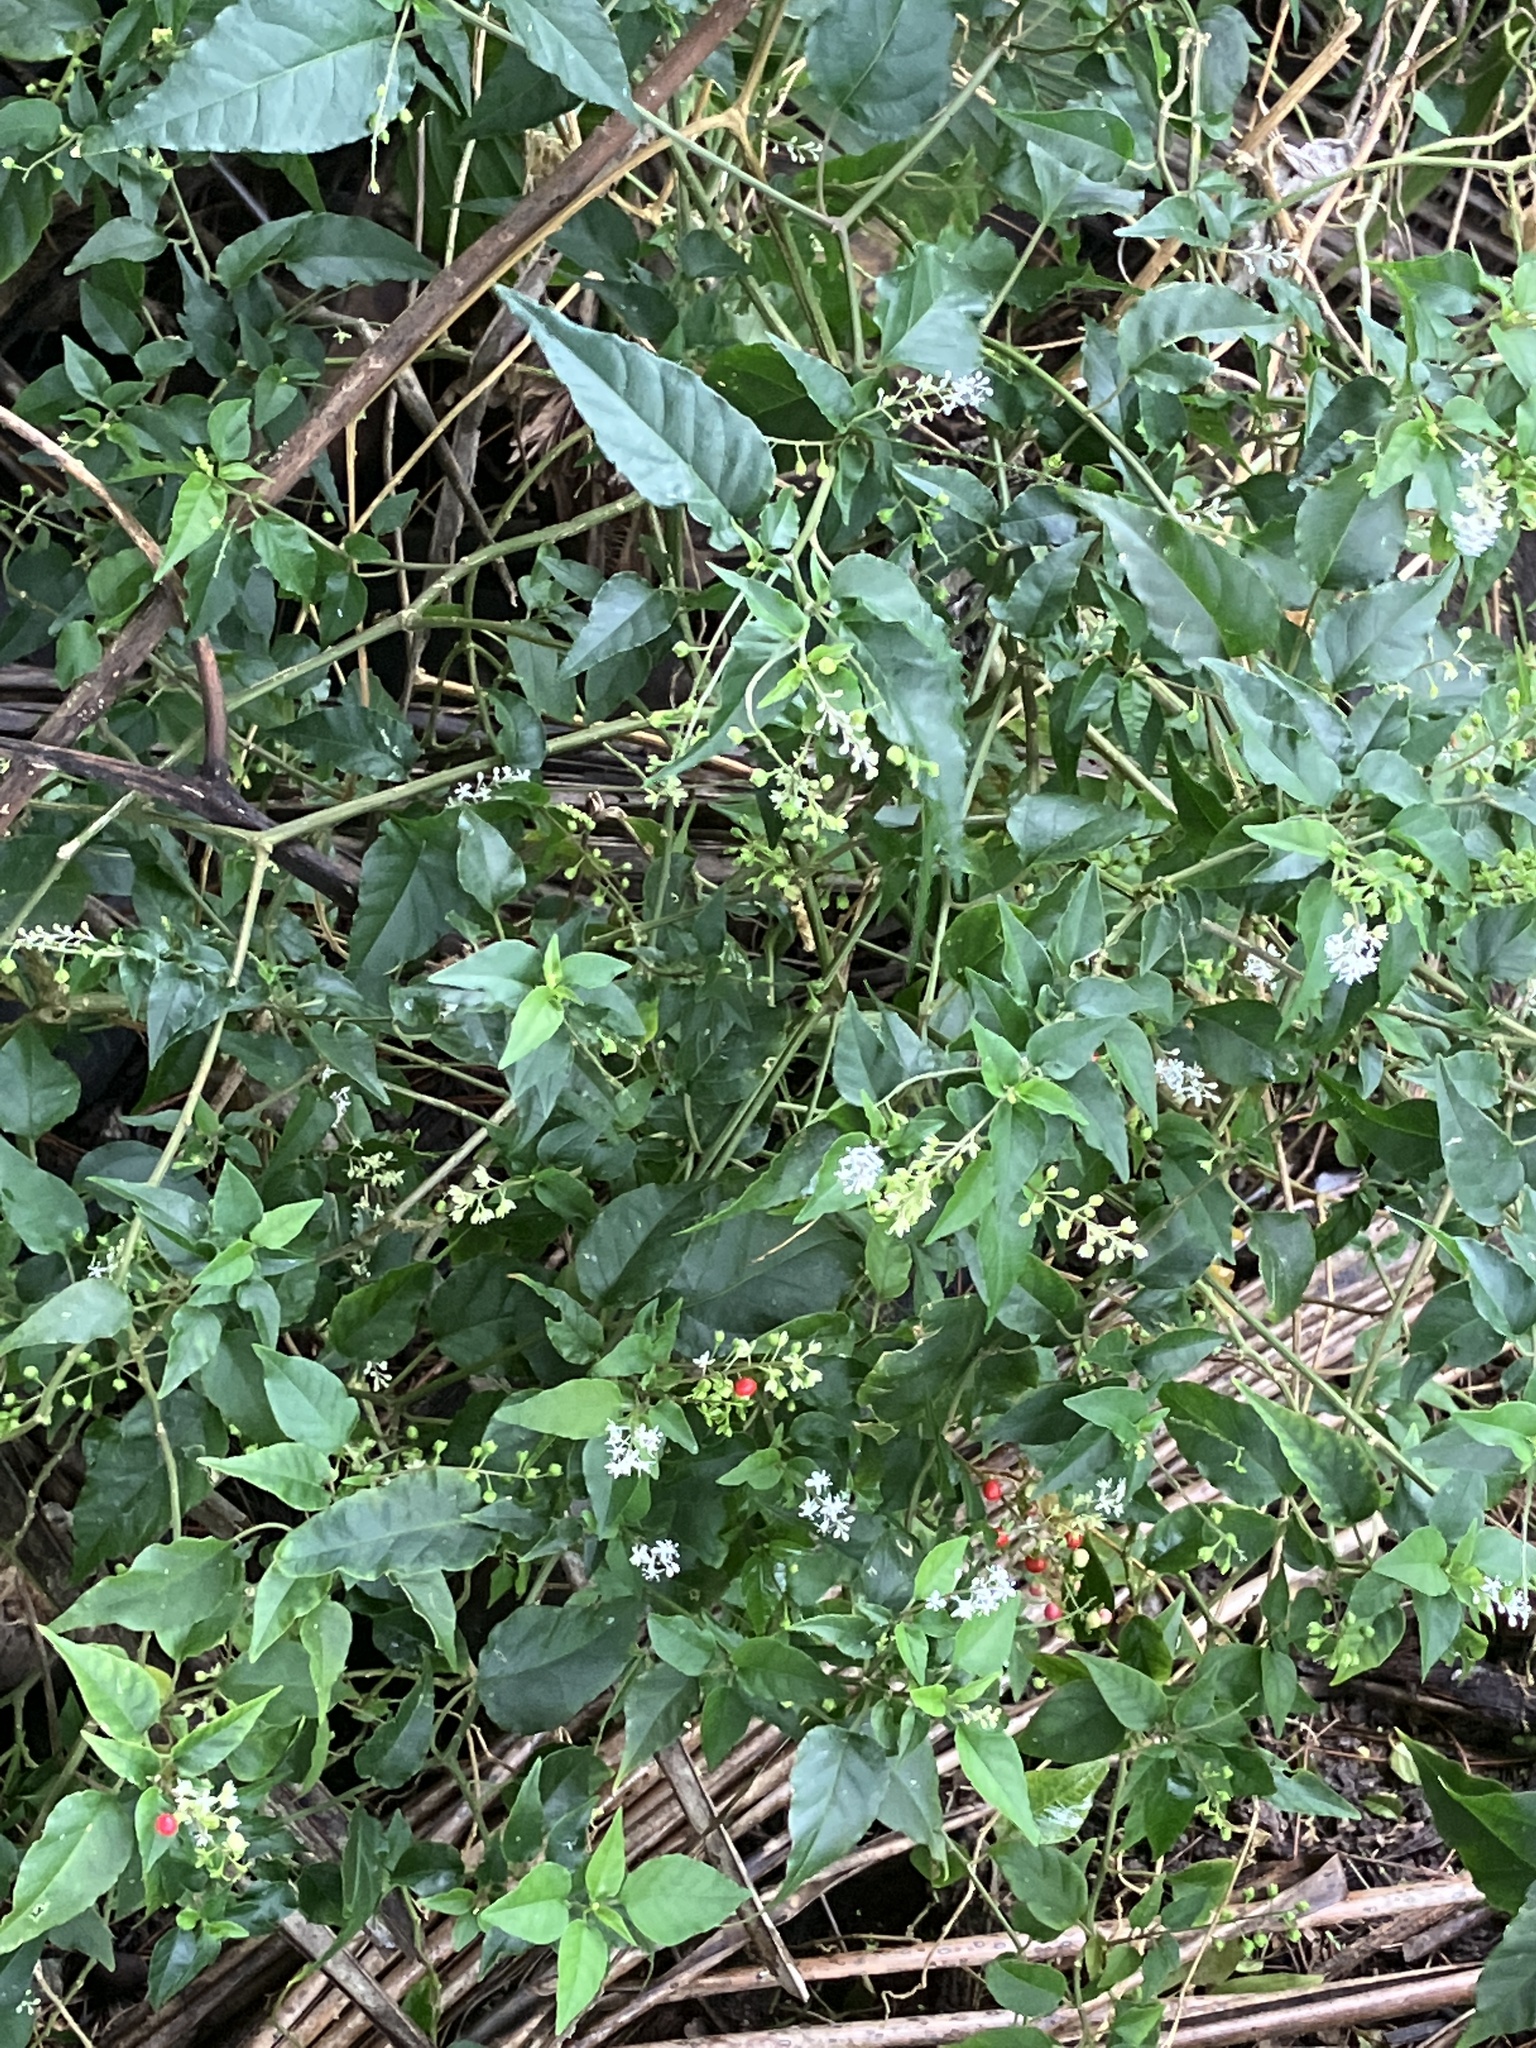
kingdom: Plantae
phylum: Tracheophyta
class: Magnoliopsida
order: Caryophyllales
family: Phytolaccaceae
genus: Rivina
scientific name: Rivina humilis
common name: Rougeplant
